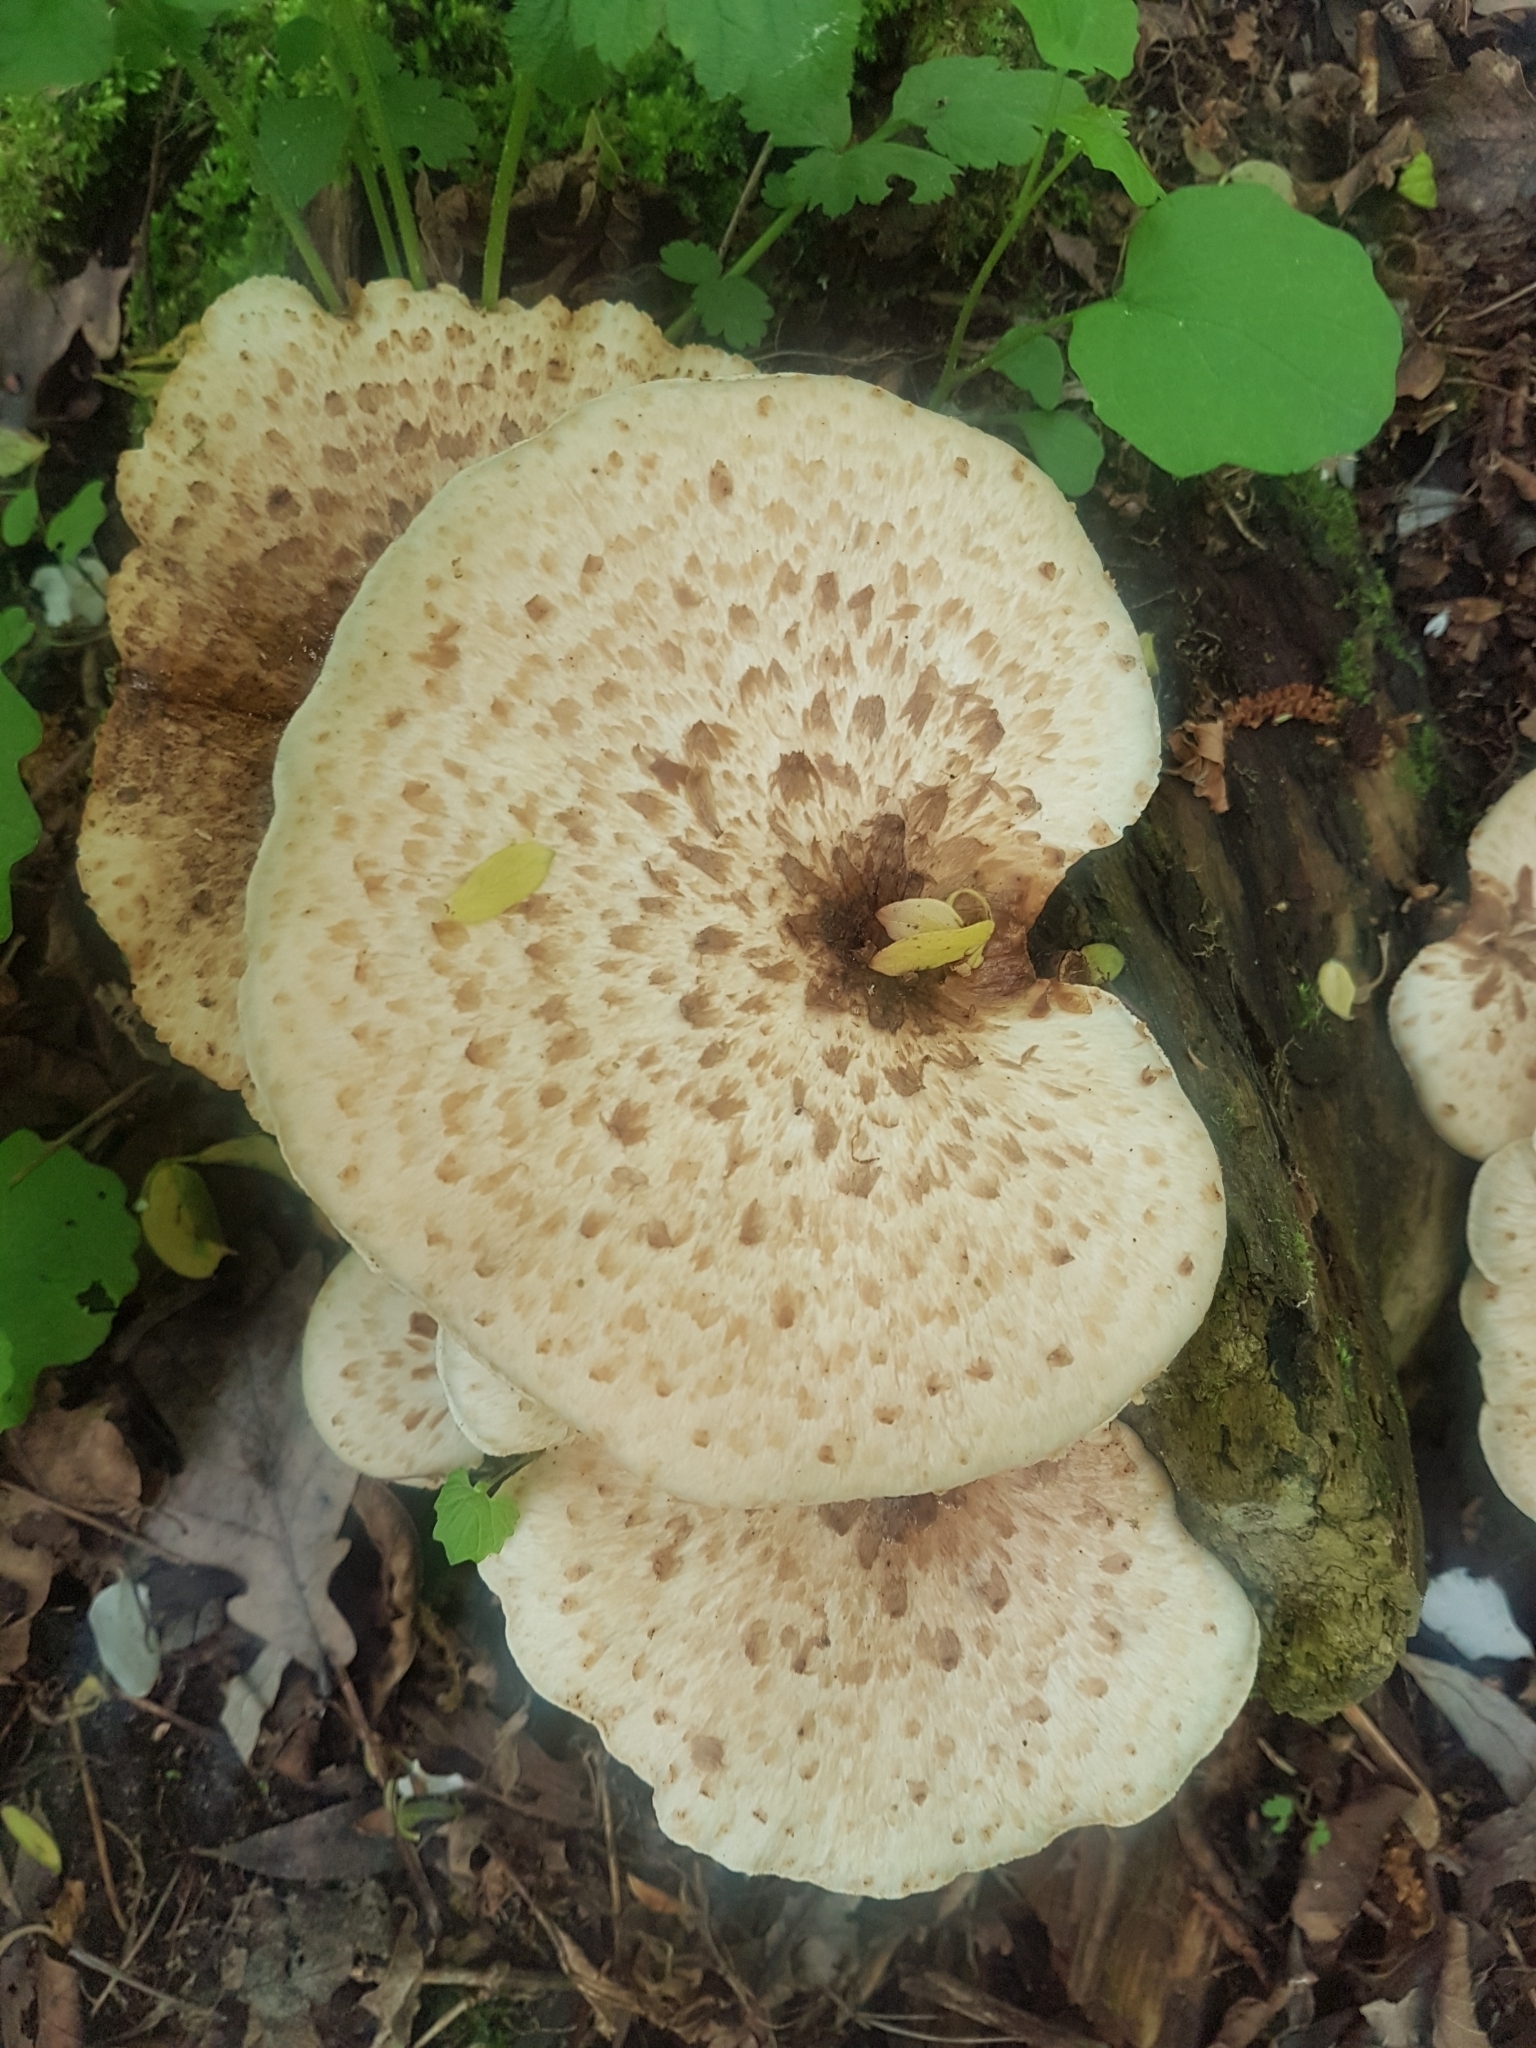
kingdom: Fungi
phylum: Basidiomycota
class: Agaricomycetes
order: Polyporales
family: Polyporaceae
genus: Cerioporus
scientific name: Cerioporus squamosus
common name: Dryad's saddle
